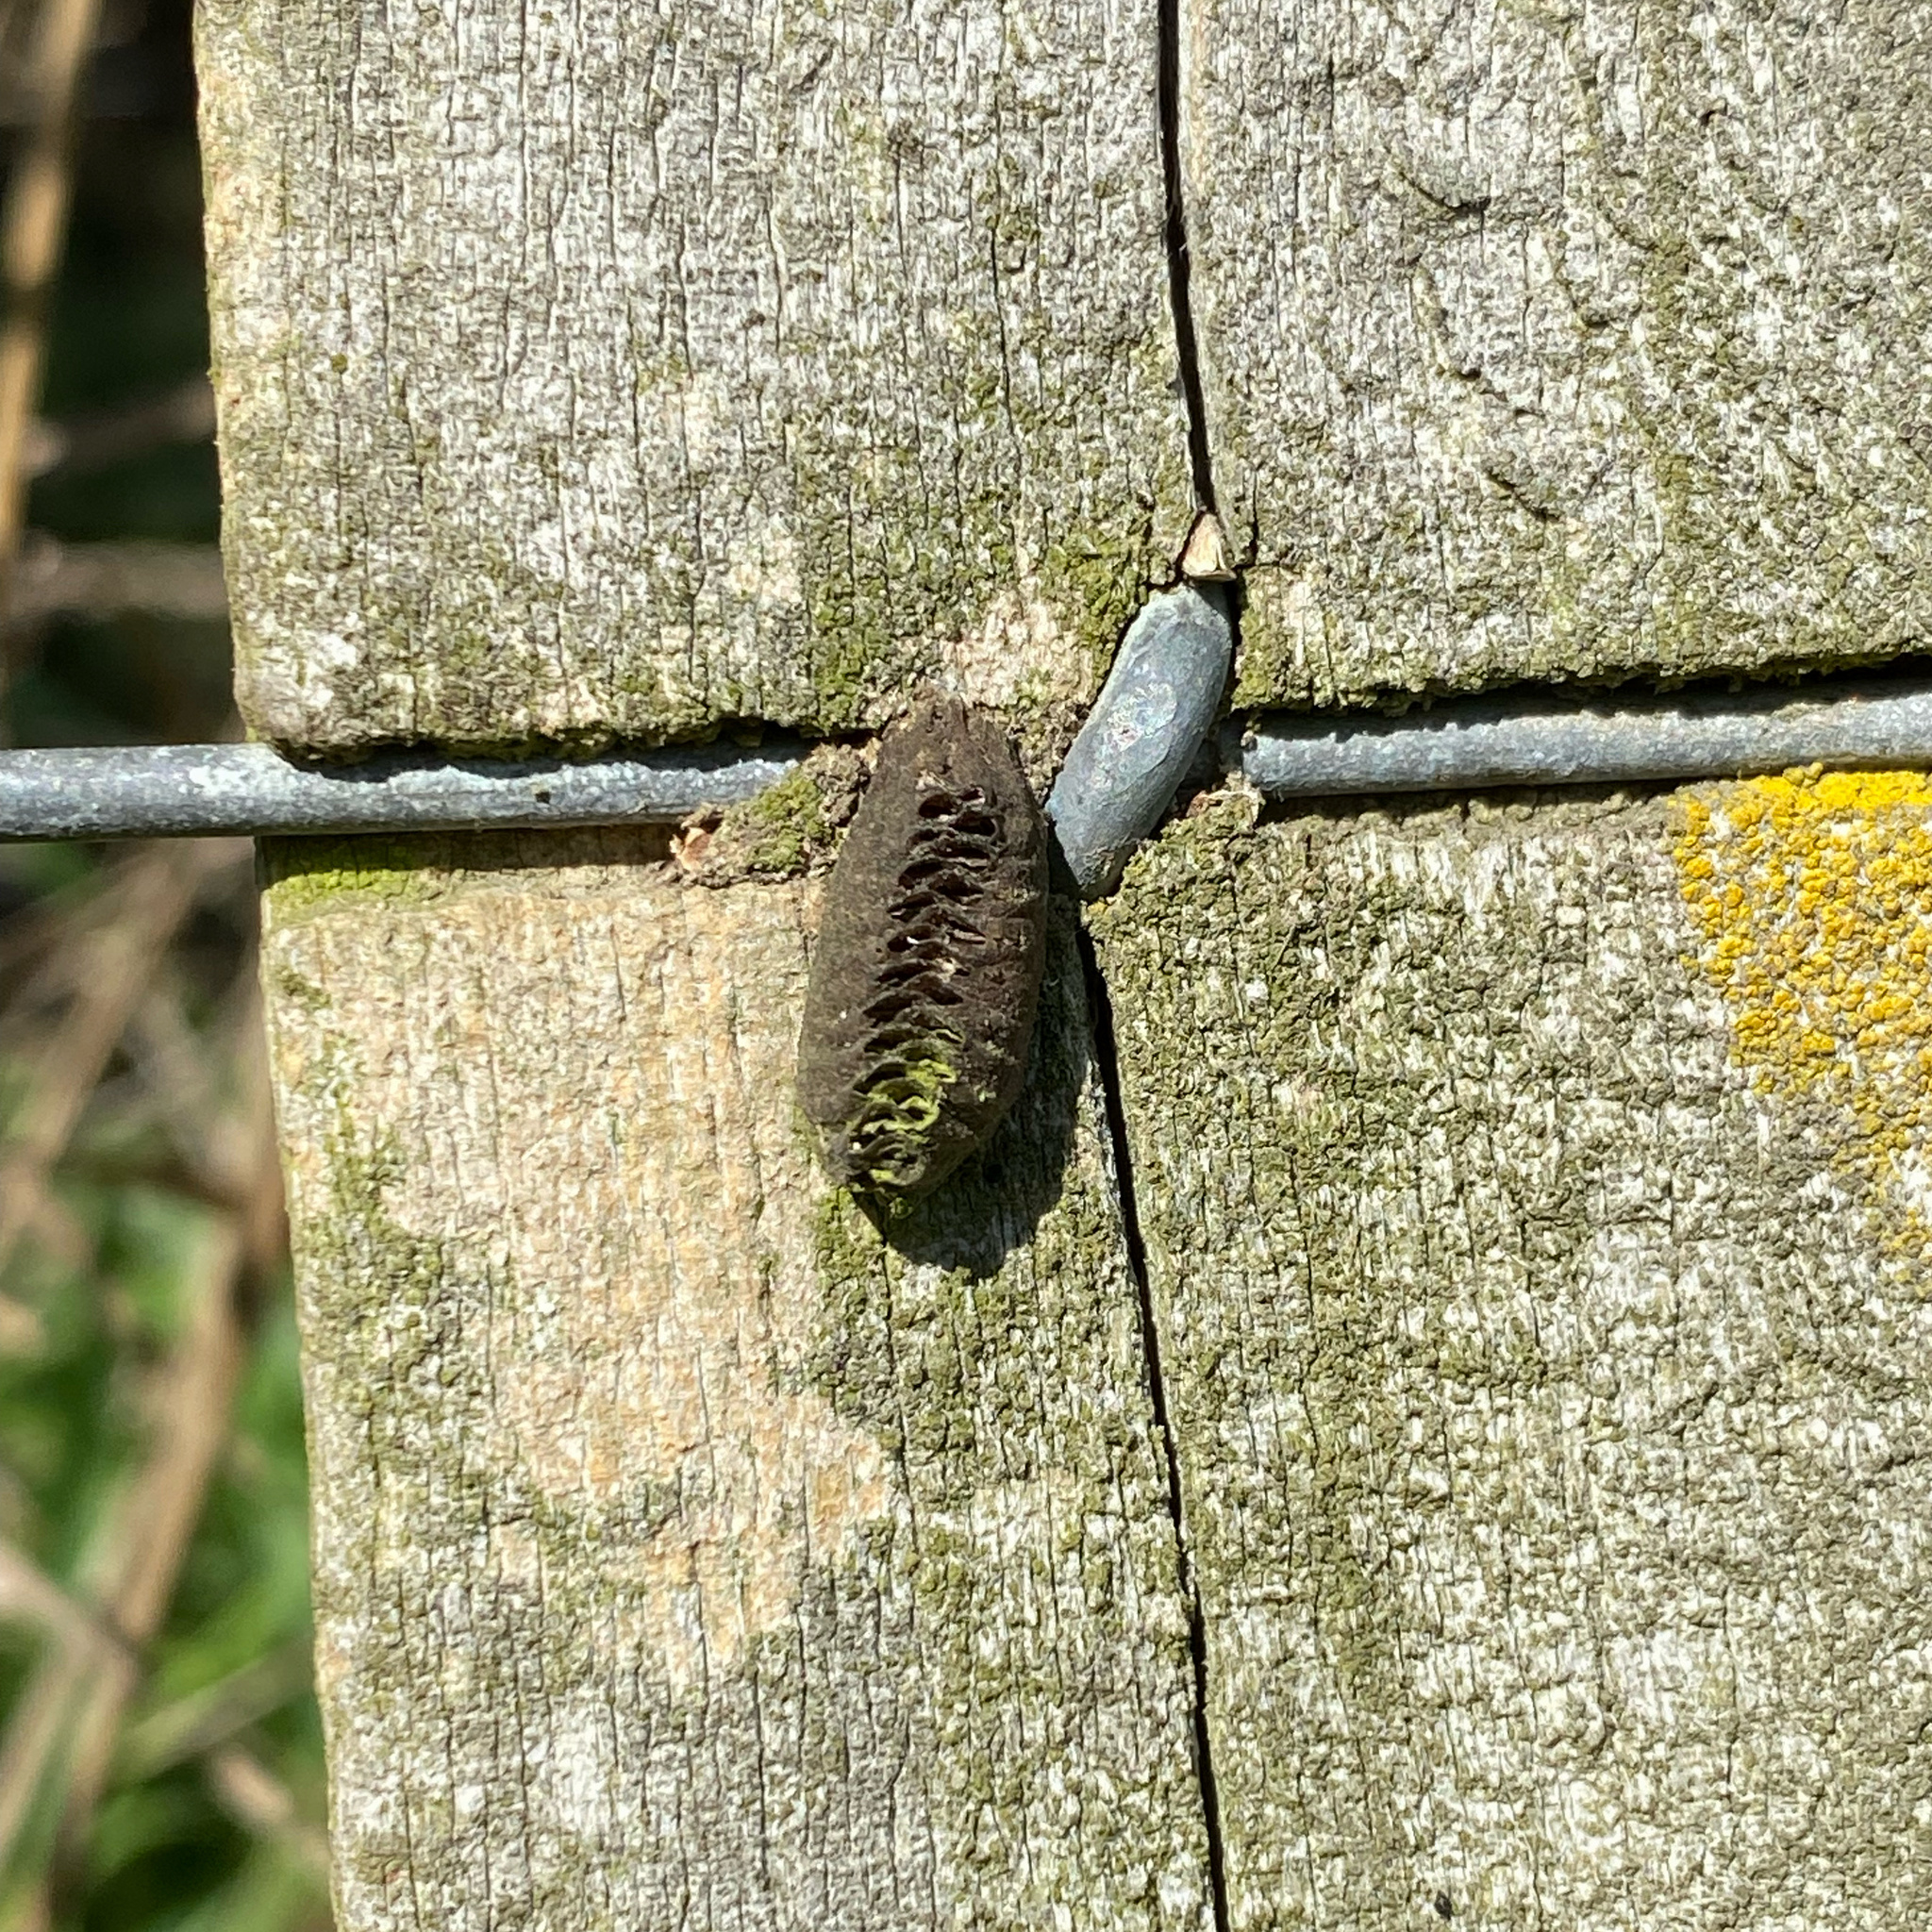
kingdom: Animalia
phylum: Arthropoda
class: Insecta
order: Mantodea
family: Mantidae
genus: Orthodera
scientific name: Orthodera novaezealandiae
